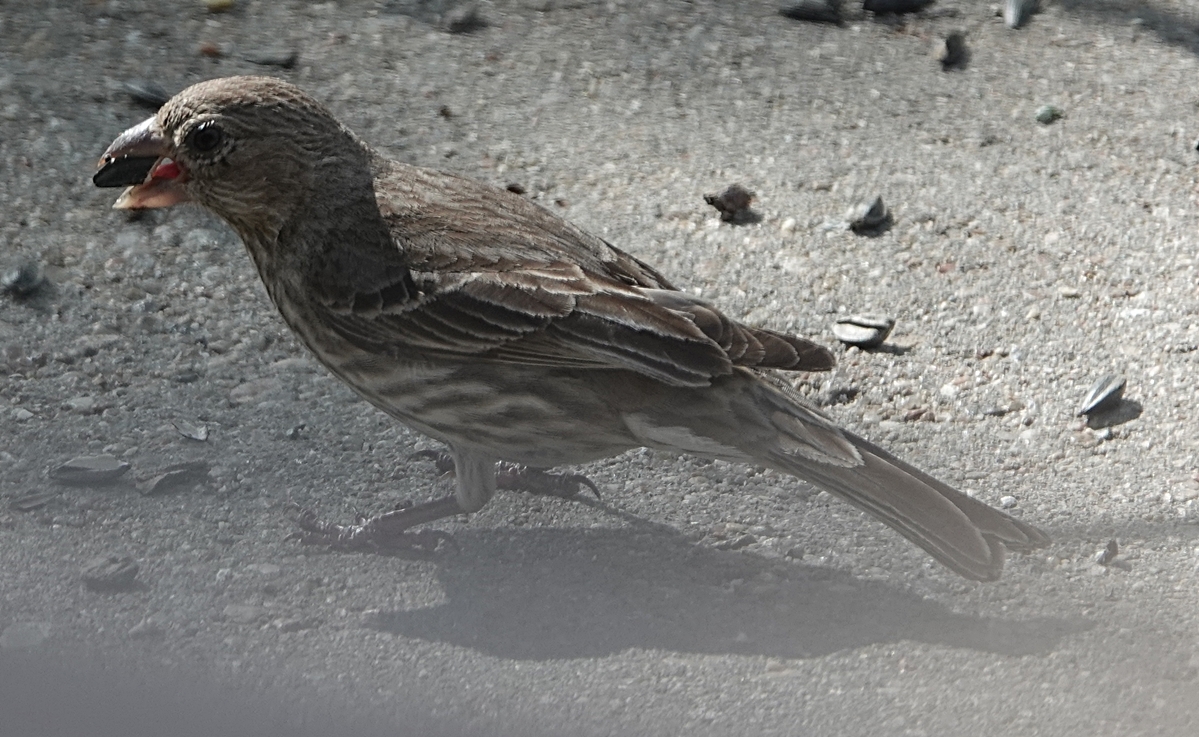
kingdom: Animalia
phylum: Chordata
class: Aves
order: Passeriformes
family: Fringillidae
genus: Haemorhous
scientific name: Haemorhous mexicanus
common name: House finch
